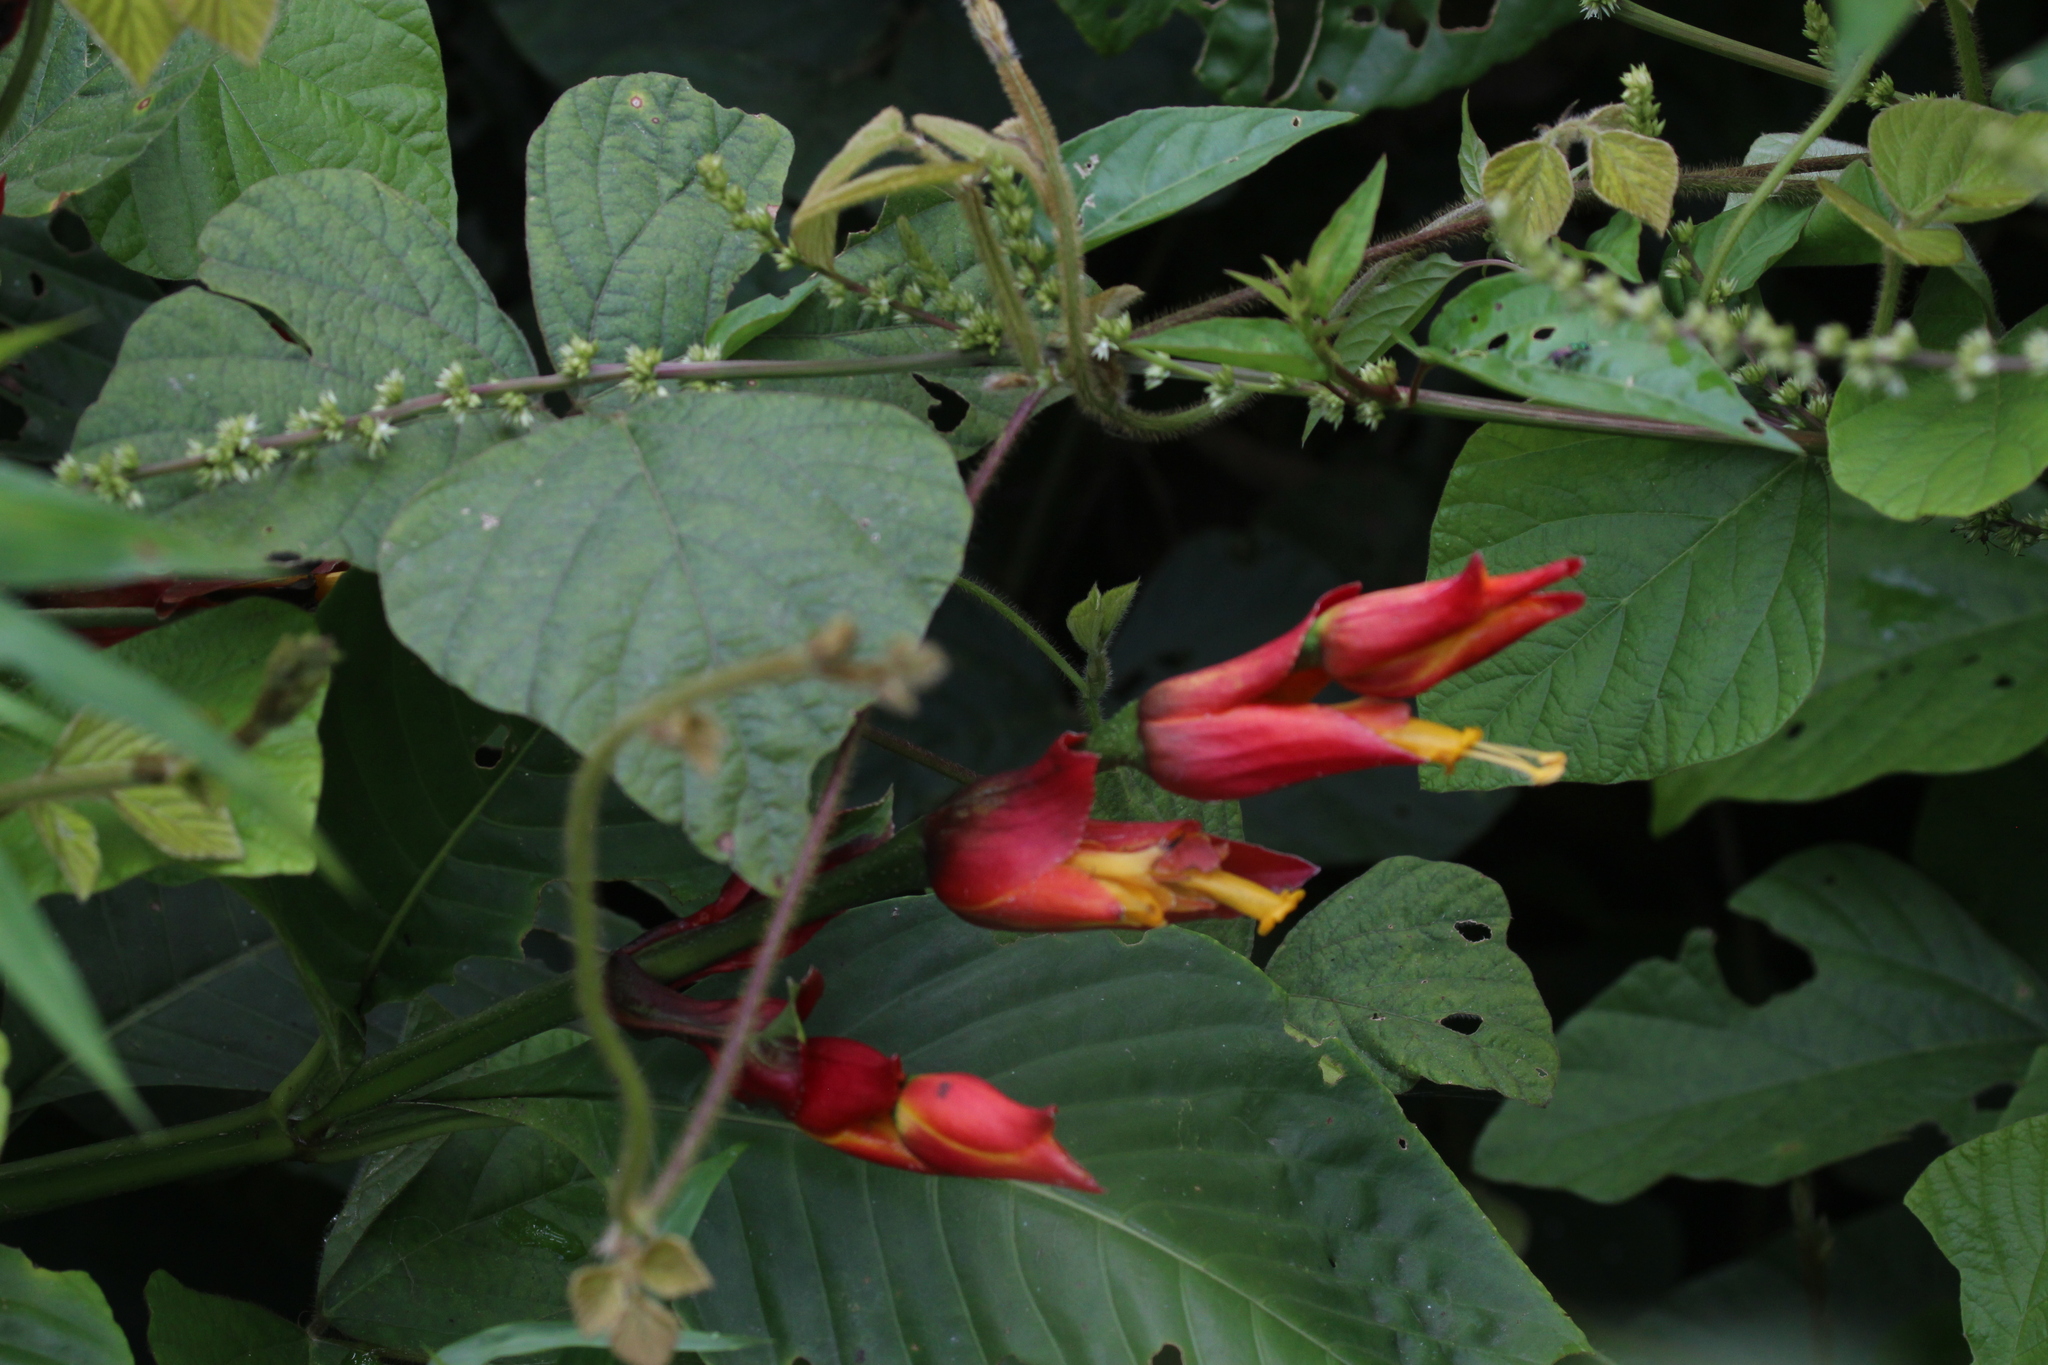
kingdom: Plantae
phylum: Tracheophyta
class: Magnoliopsida
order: Lamiales
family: Acanthaceae
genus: Sanchezia
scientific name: Sanchezia oblonga
